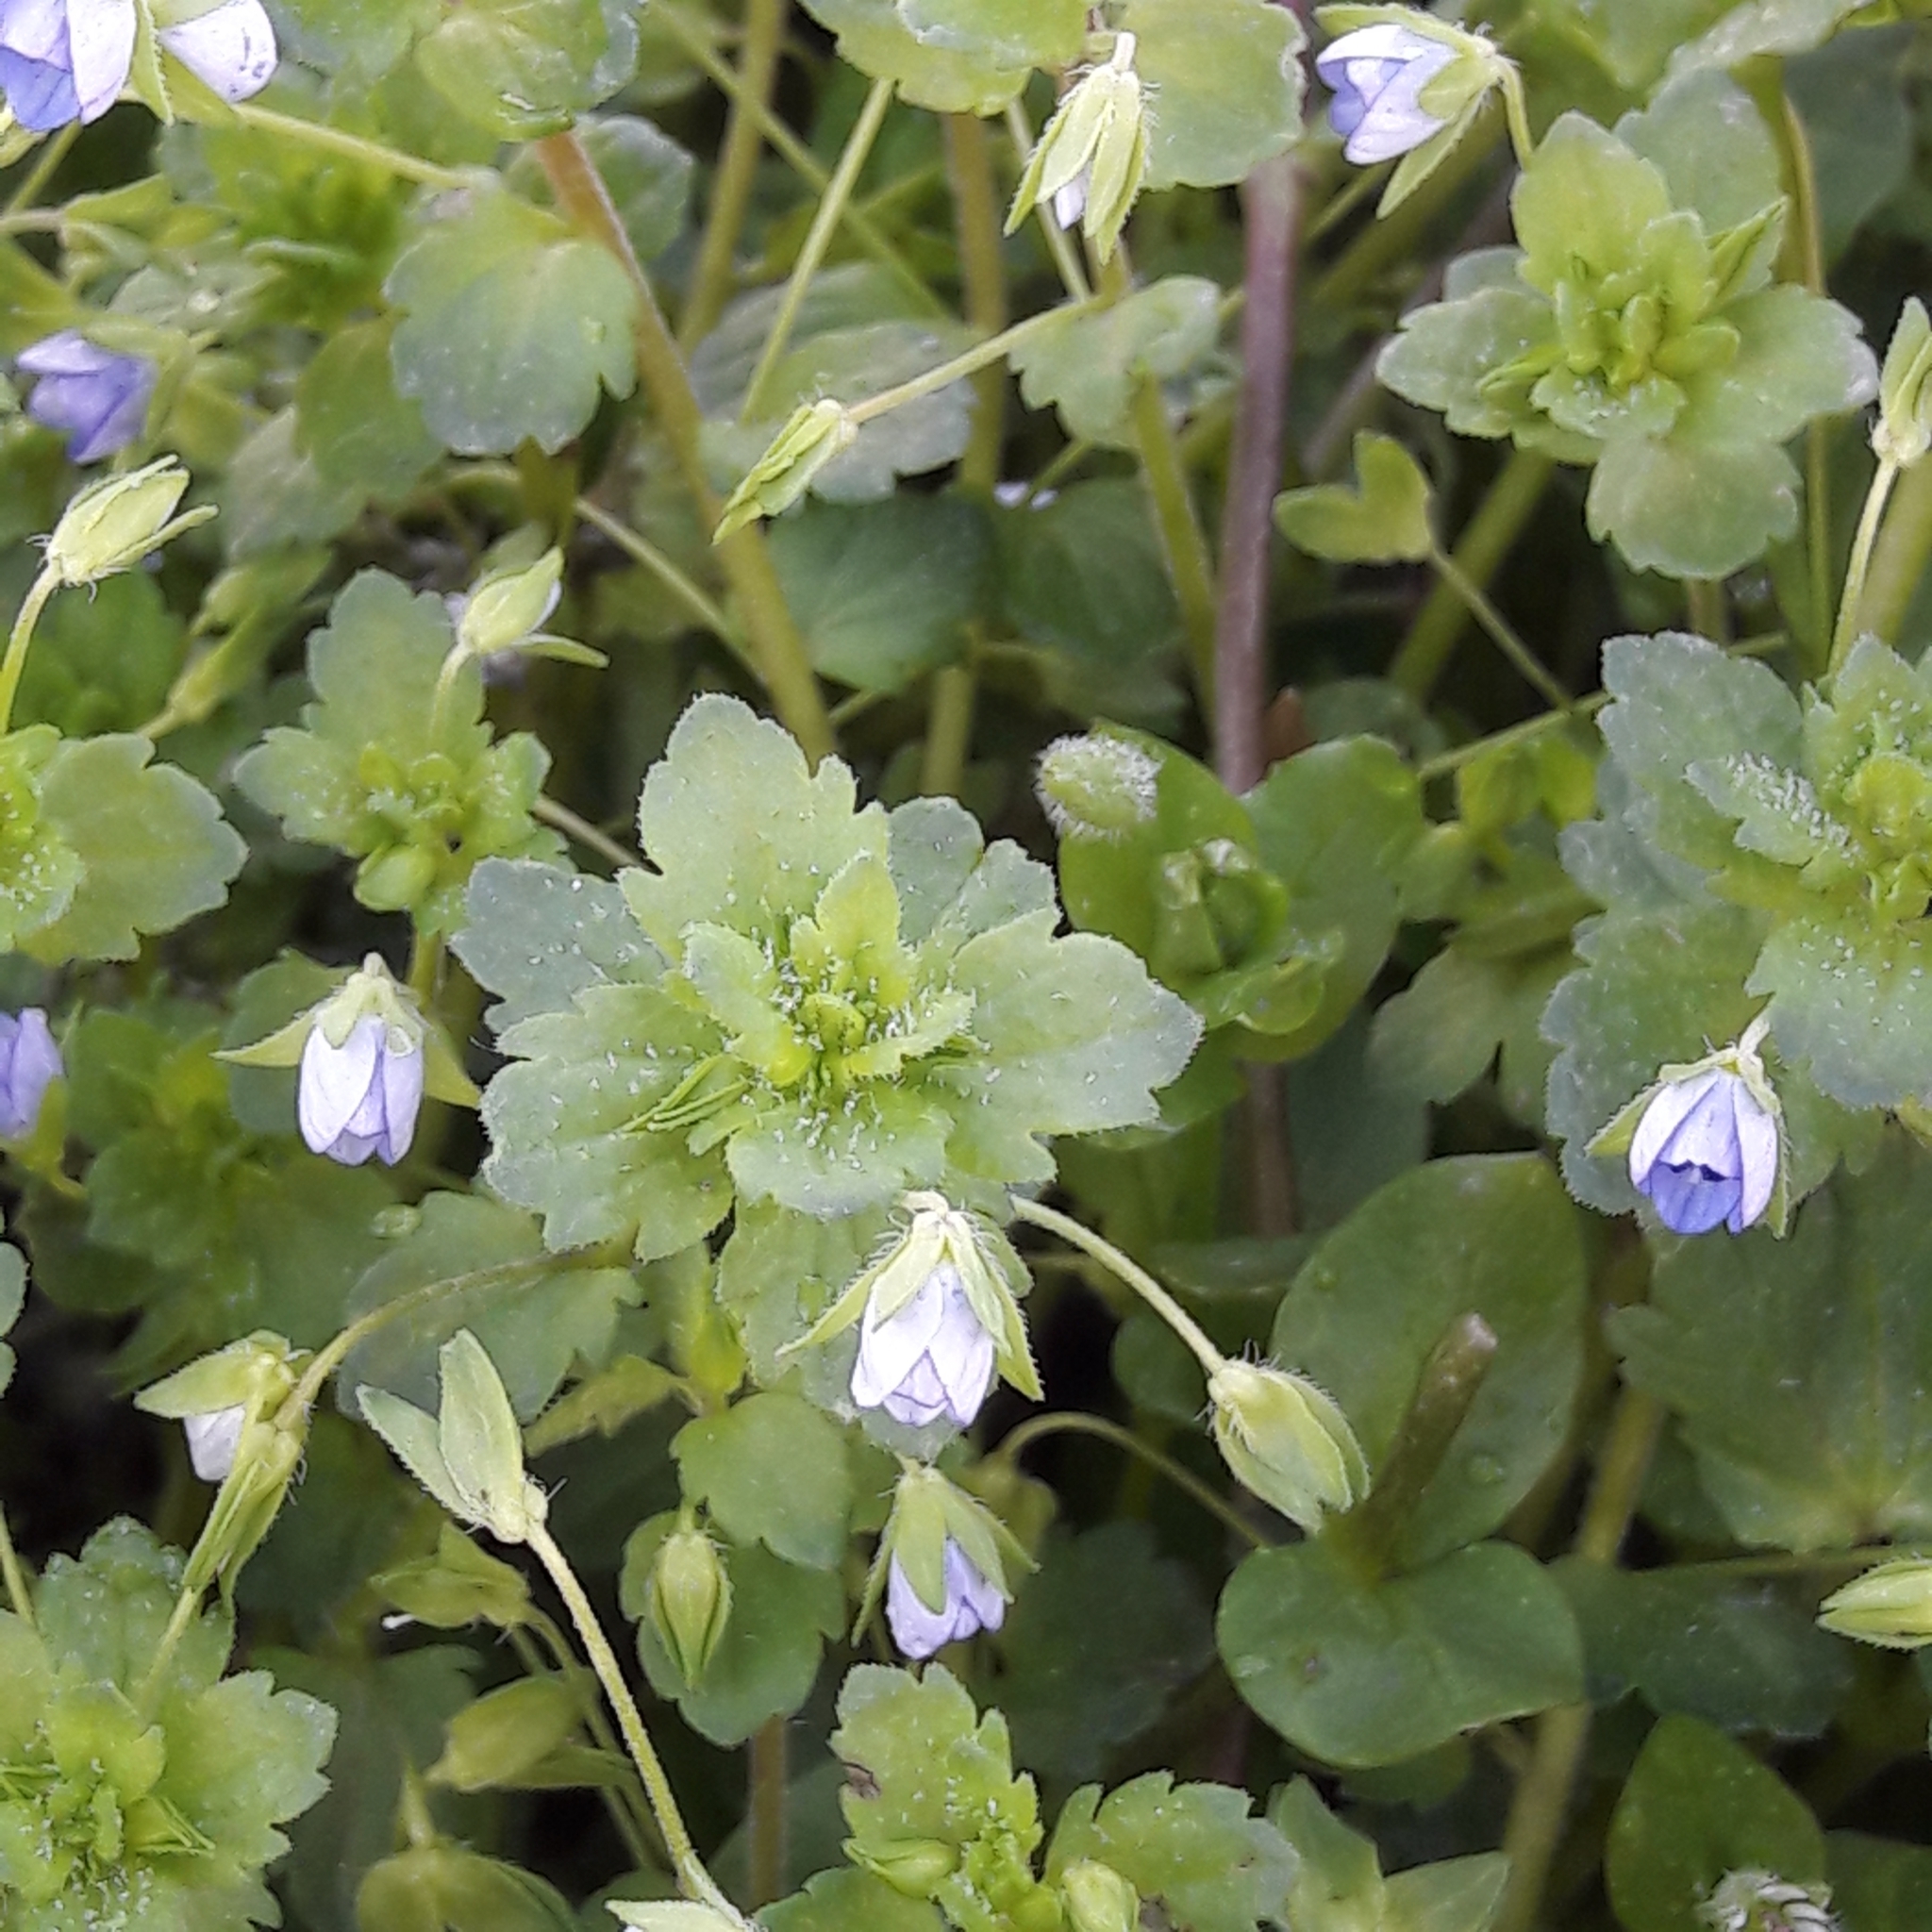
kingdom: Plantae
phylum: Tracheophyta
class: Magnoliopsida
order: Lamiales
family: Plantaginaceae
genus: Veronica
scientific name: Veronica persica
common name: Common field-speedwell
